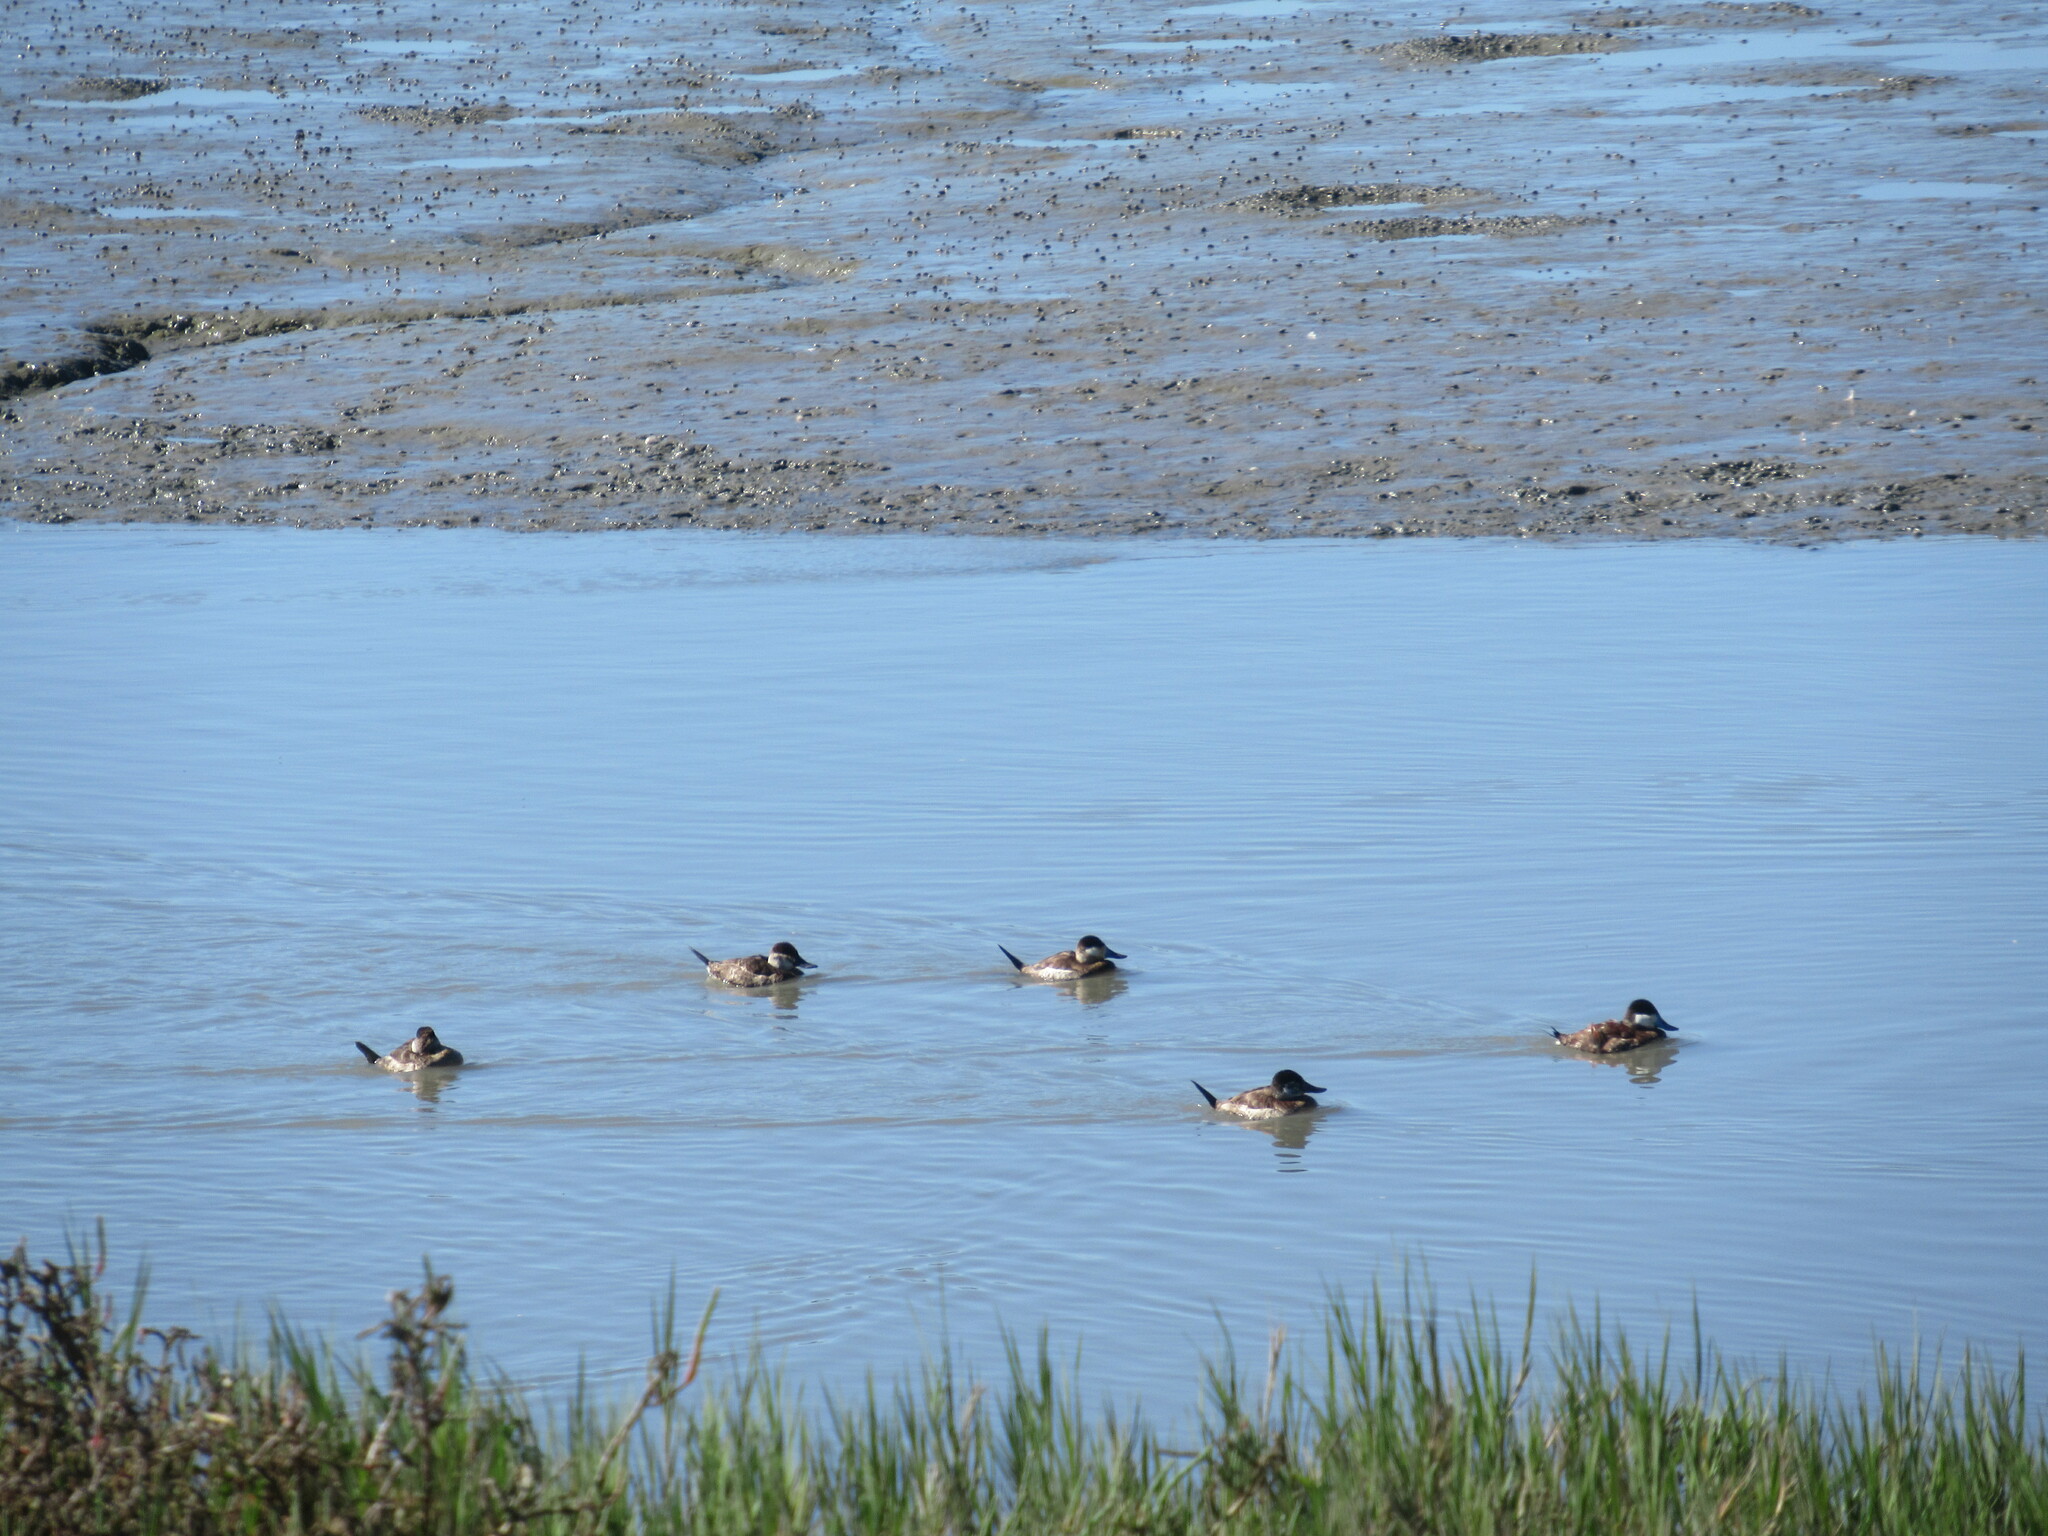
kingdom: Animalia
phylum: Chordata
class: Aves
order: Anseriformes
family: Anatidae
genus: Oxyura
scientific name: Oxyura jamaicensis
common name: Ruddy duck
